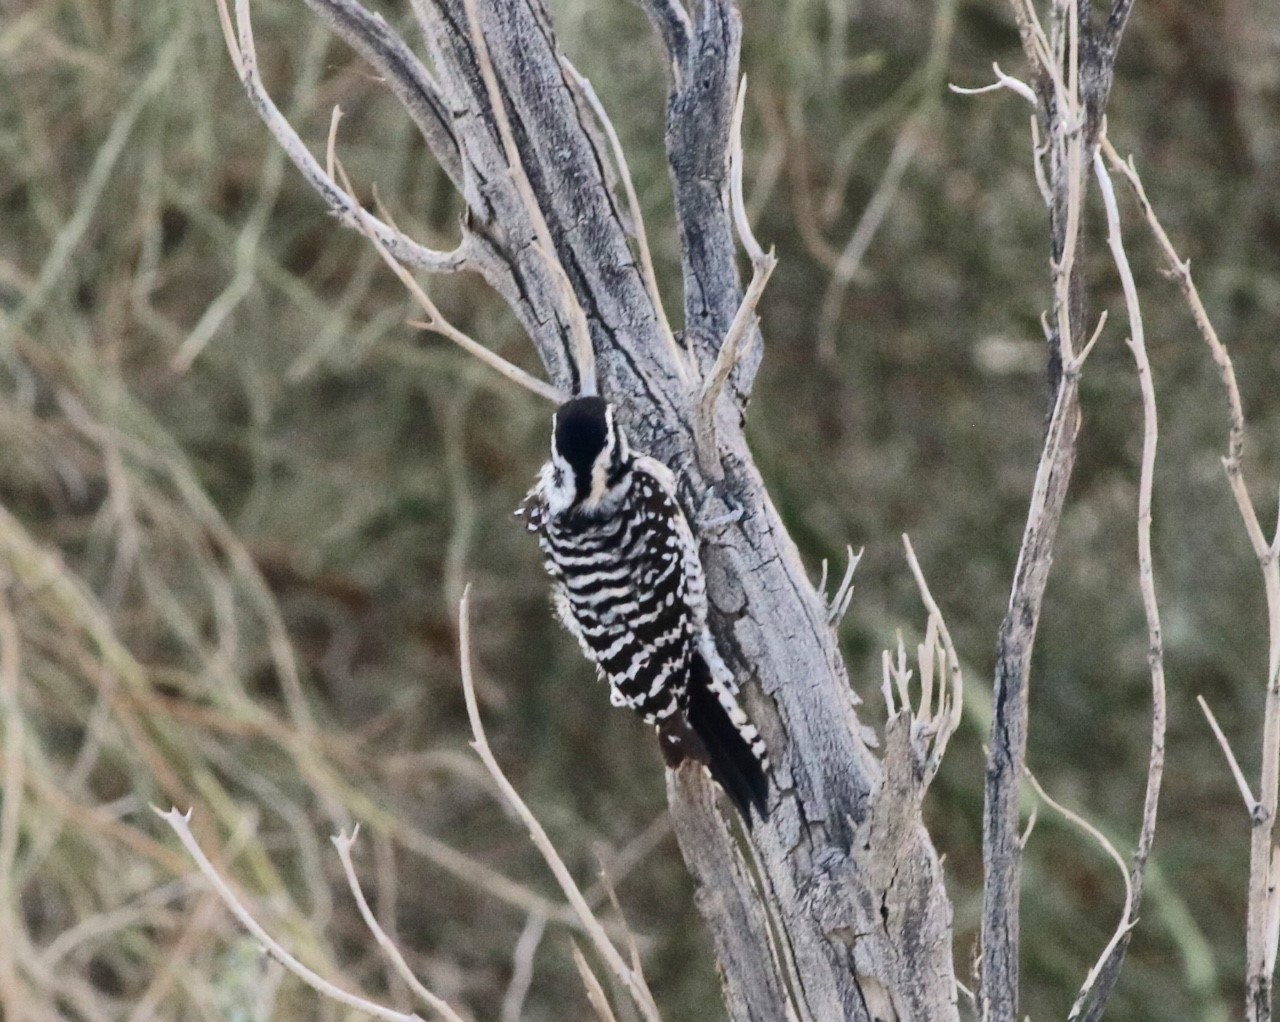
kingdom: Animalia
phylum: Chordata
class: Aves
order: Piciformes
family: Picidae
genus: Dryobates
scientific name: Dryobates scalaris
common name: Ladder-backed woodpecker
